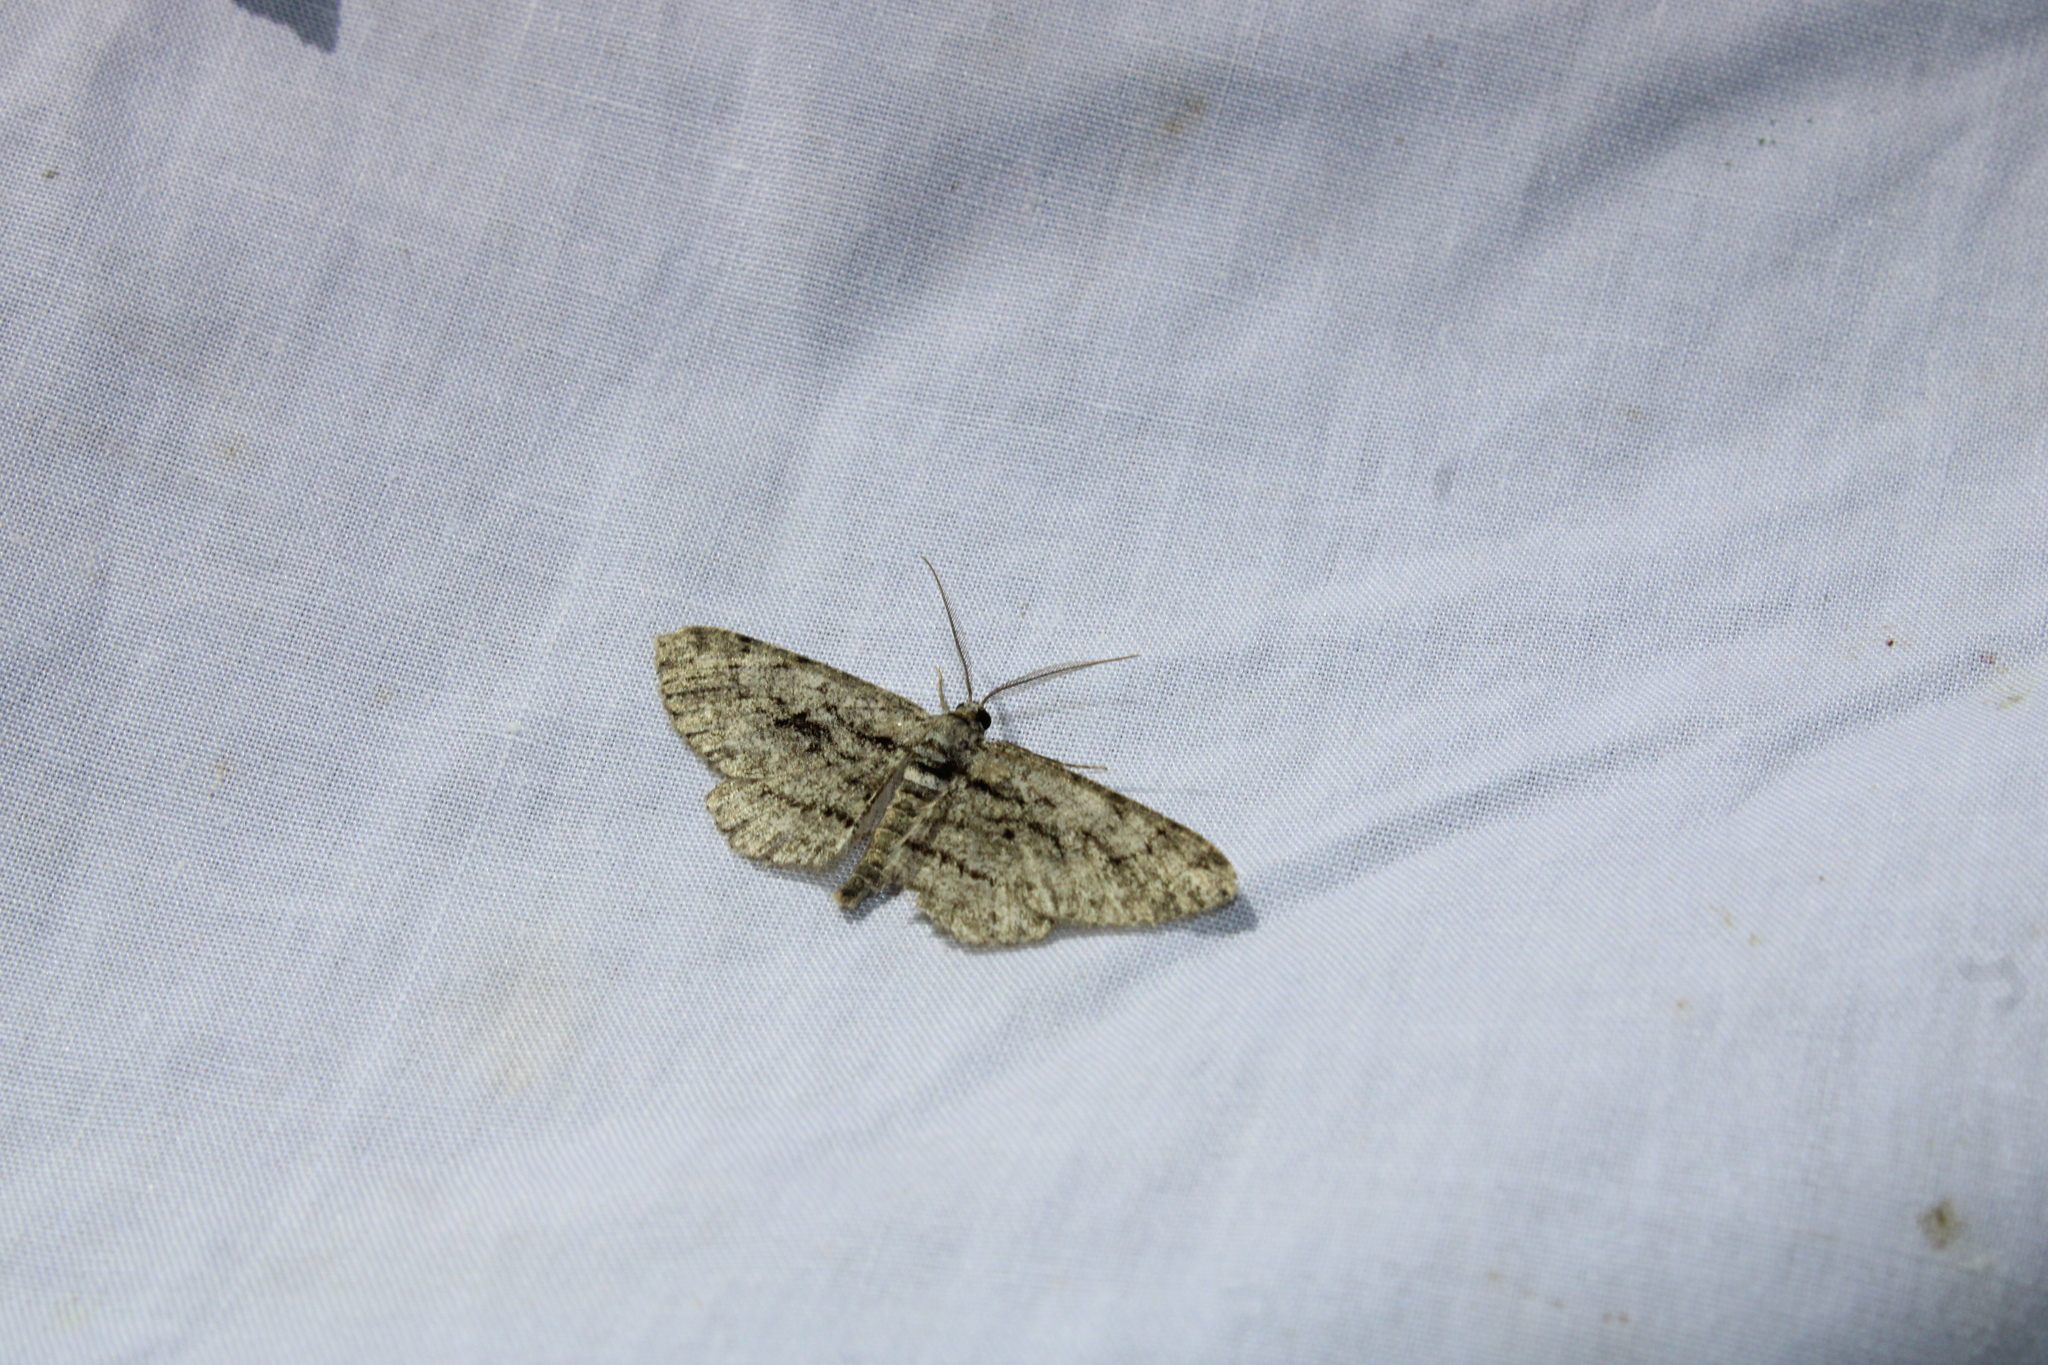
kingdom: Animalia
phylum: Arthropoda
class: Insecta
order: Lepidoptera
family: Geometridae
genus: Anavitrinella
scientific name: Anavitrinella pampinaria
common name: Common gray
